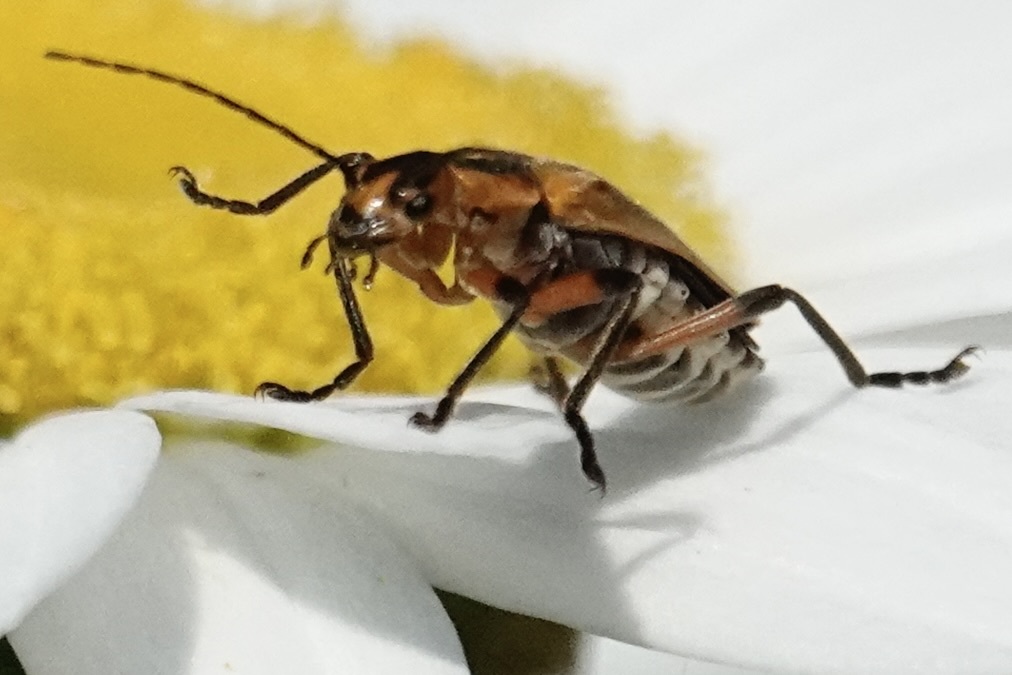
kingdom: Animalia
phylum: Arthropoda
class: Insecta
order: Coleoptera
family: Cantharidae
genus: Chauliognathus
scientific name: Chauliognathus marginatus
